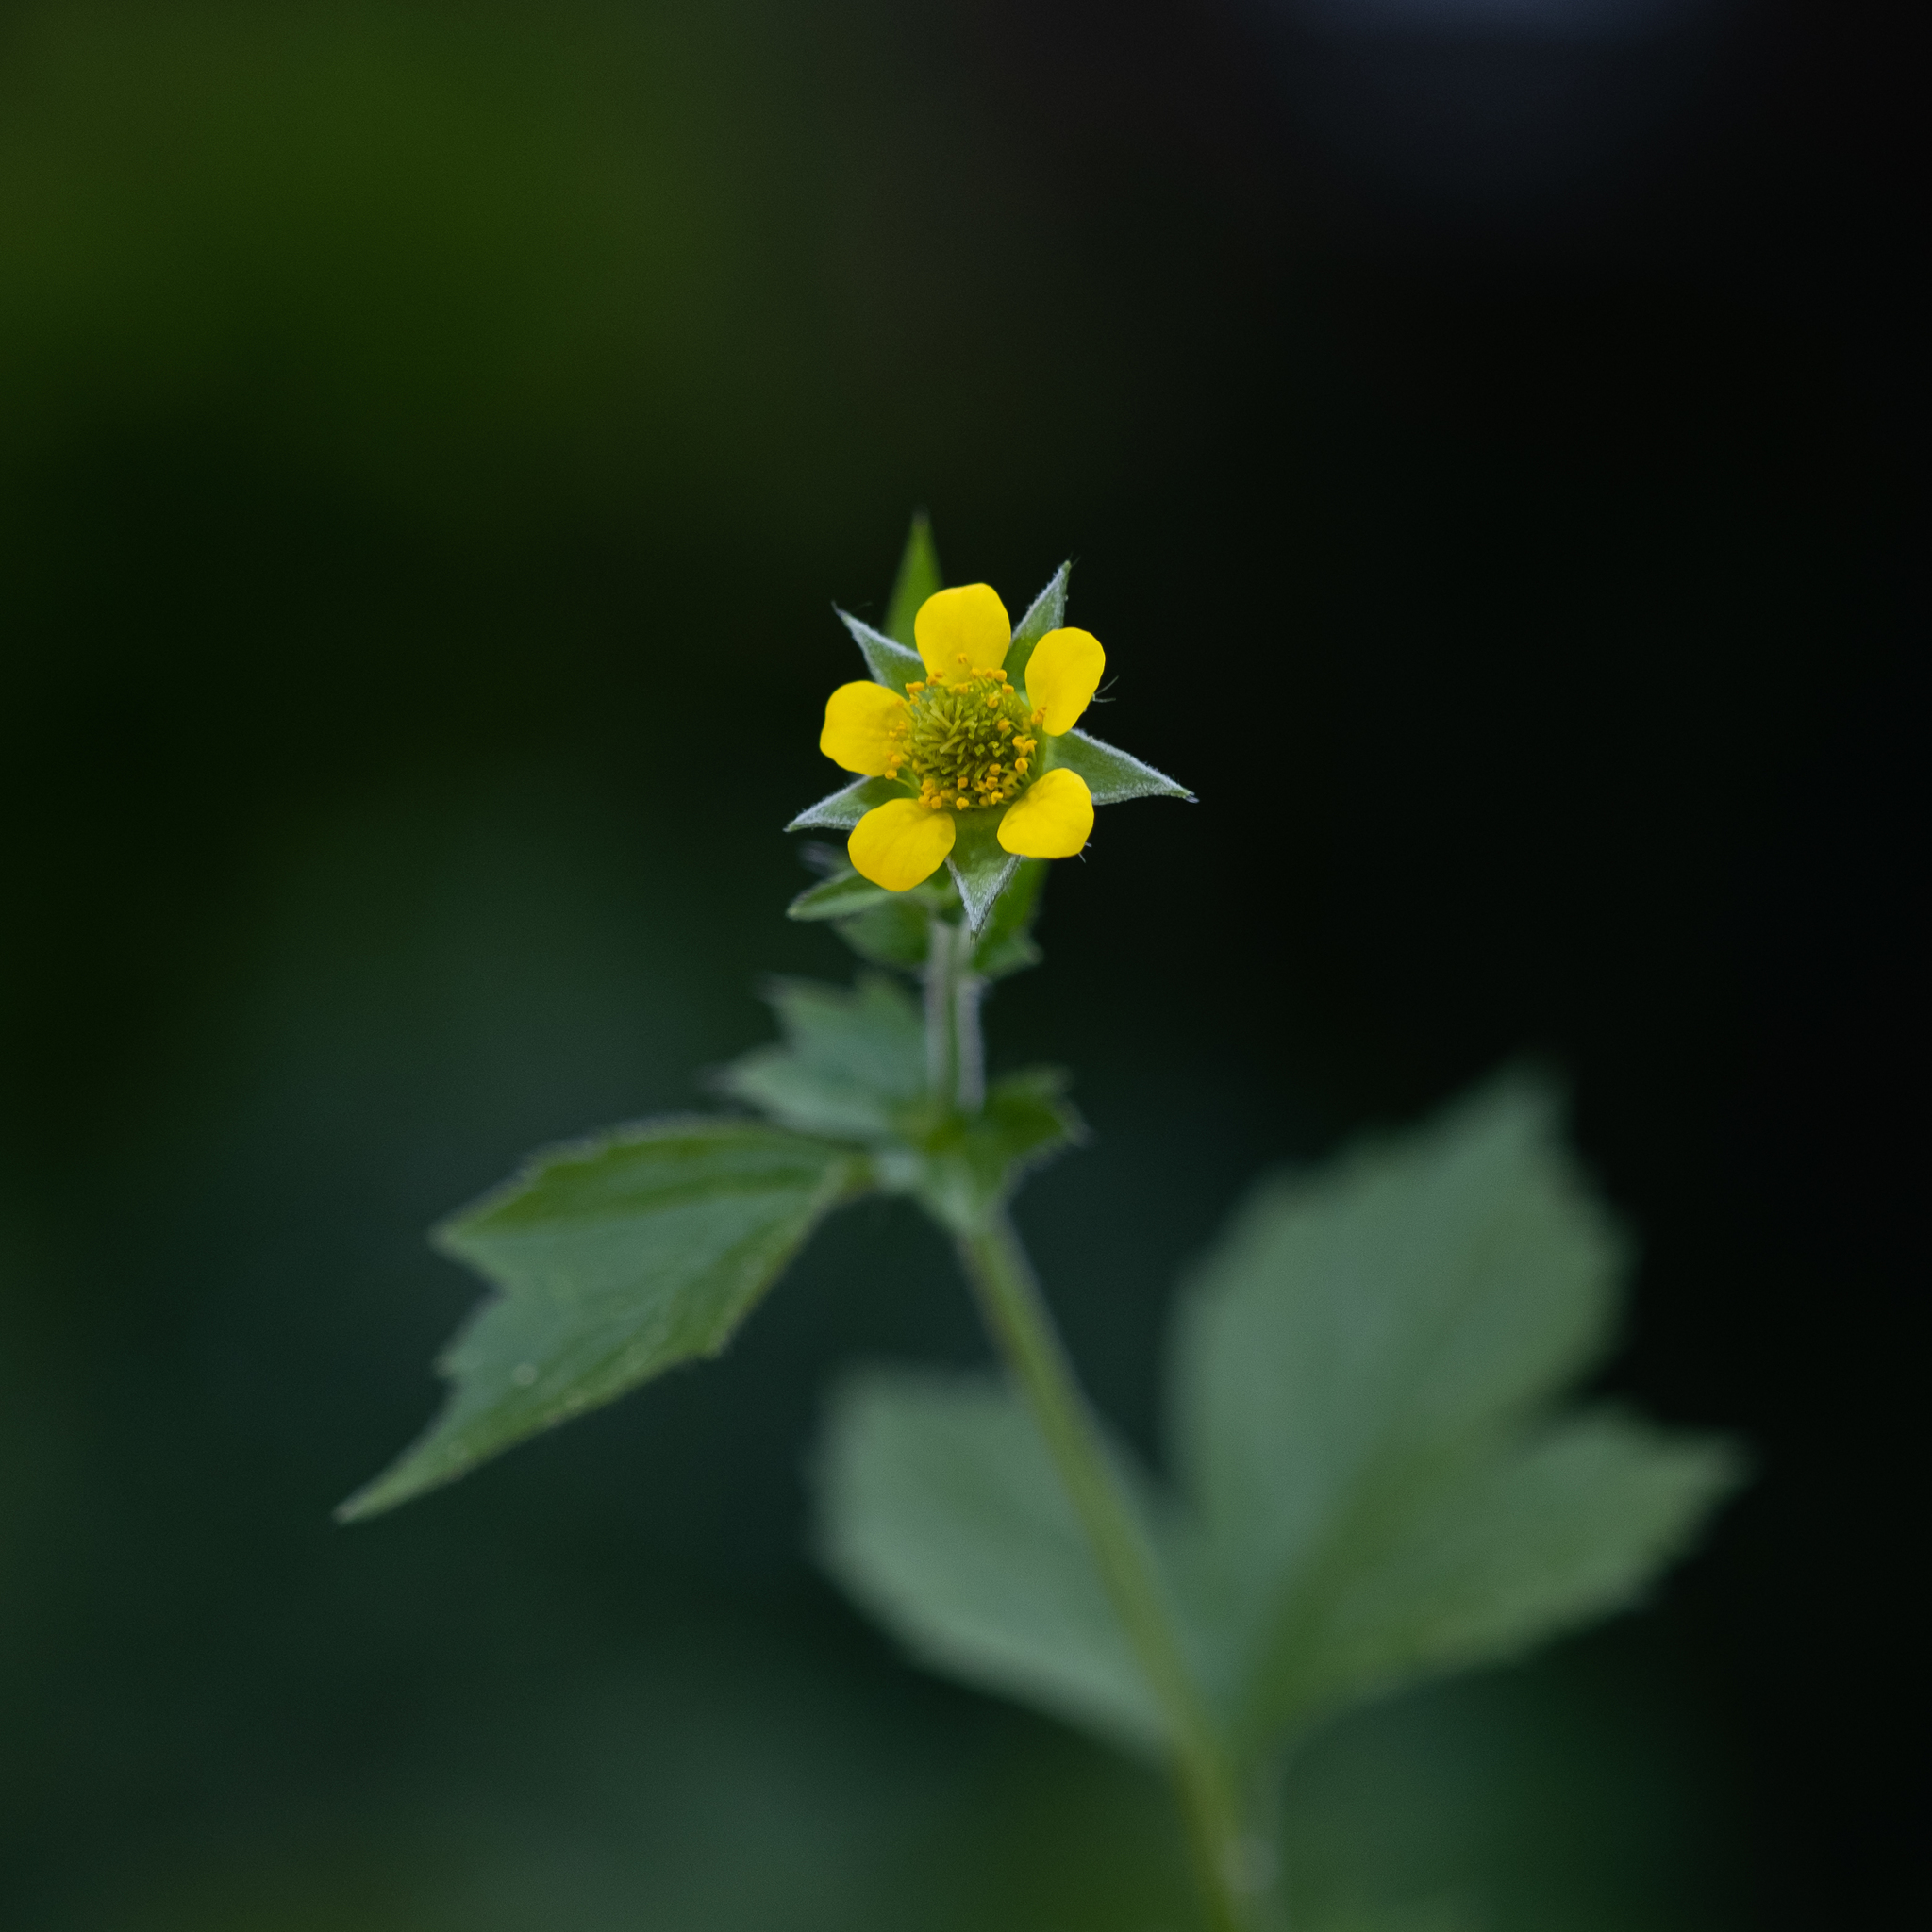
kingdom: Plantae
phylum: Tracheophyta
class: Magnoliopsida
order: Rosales
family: Rosaceae
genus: Geum
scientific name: Geum urbanum
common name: Wood avens
